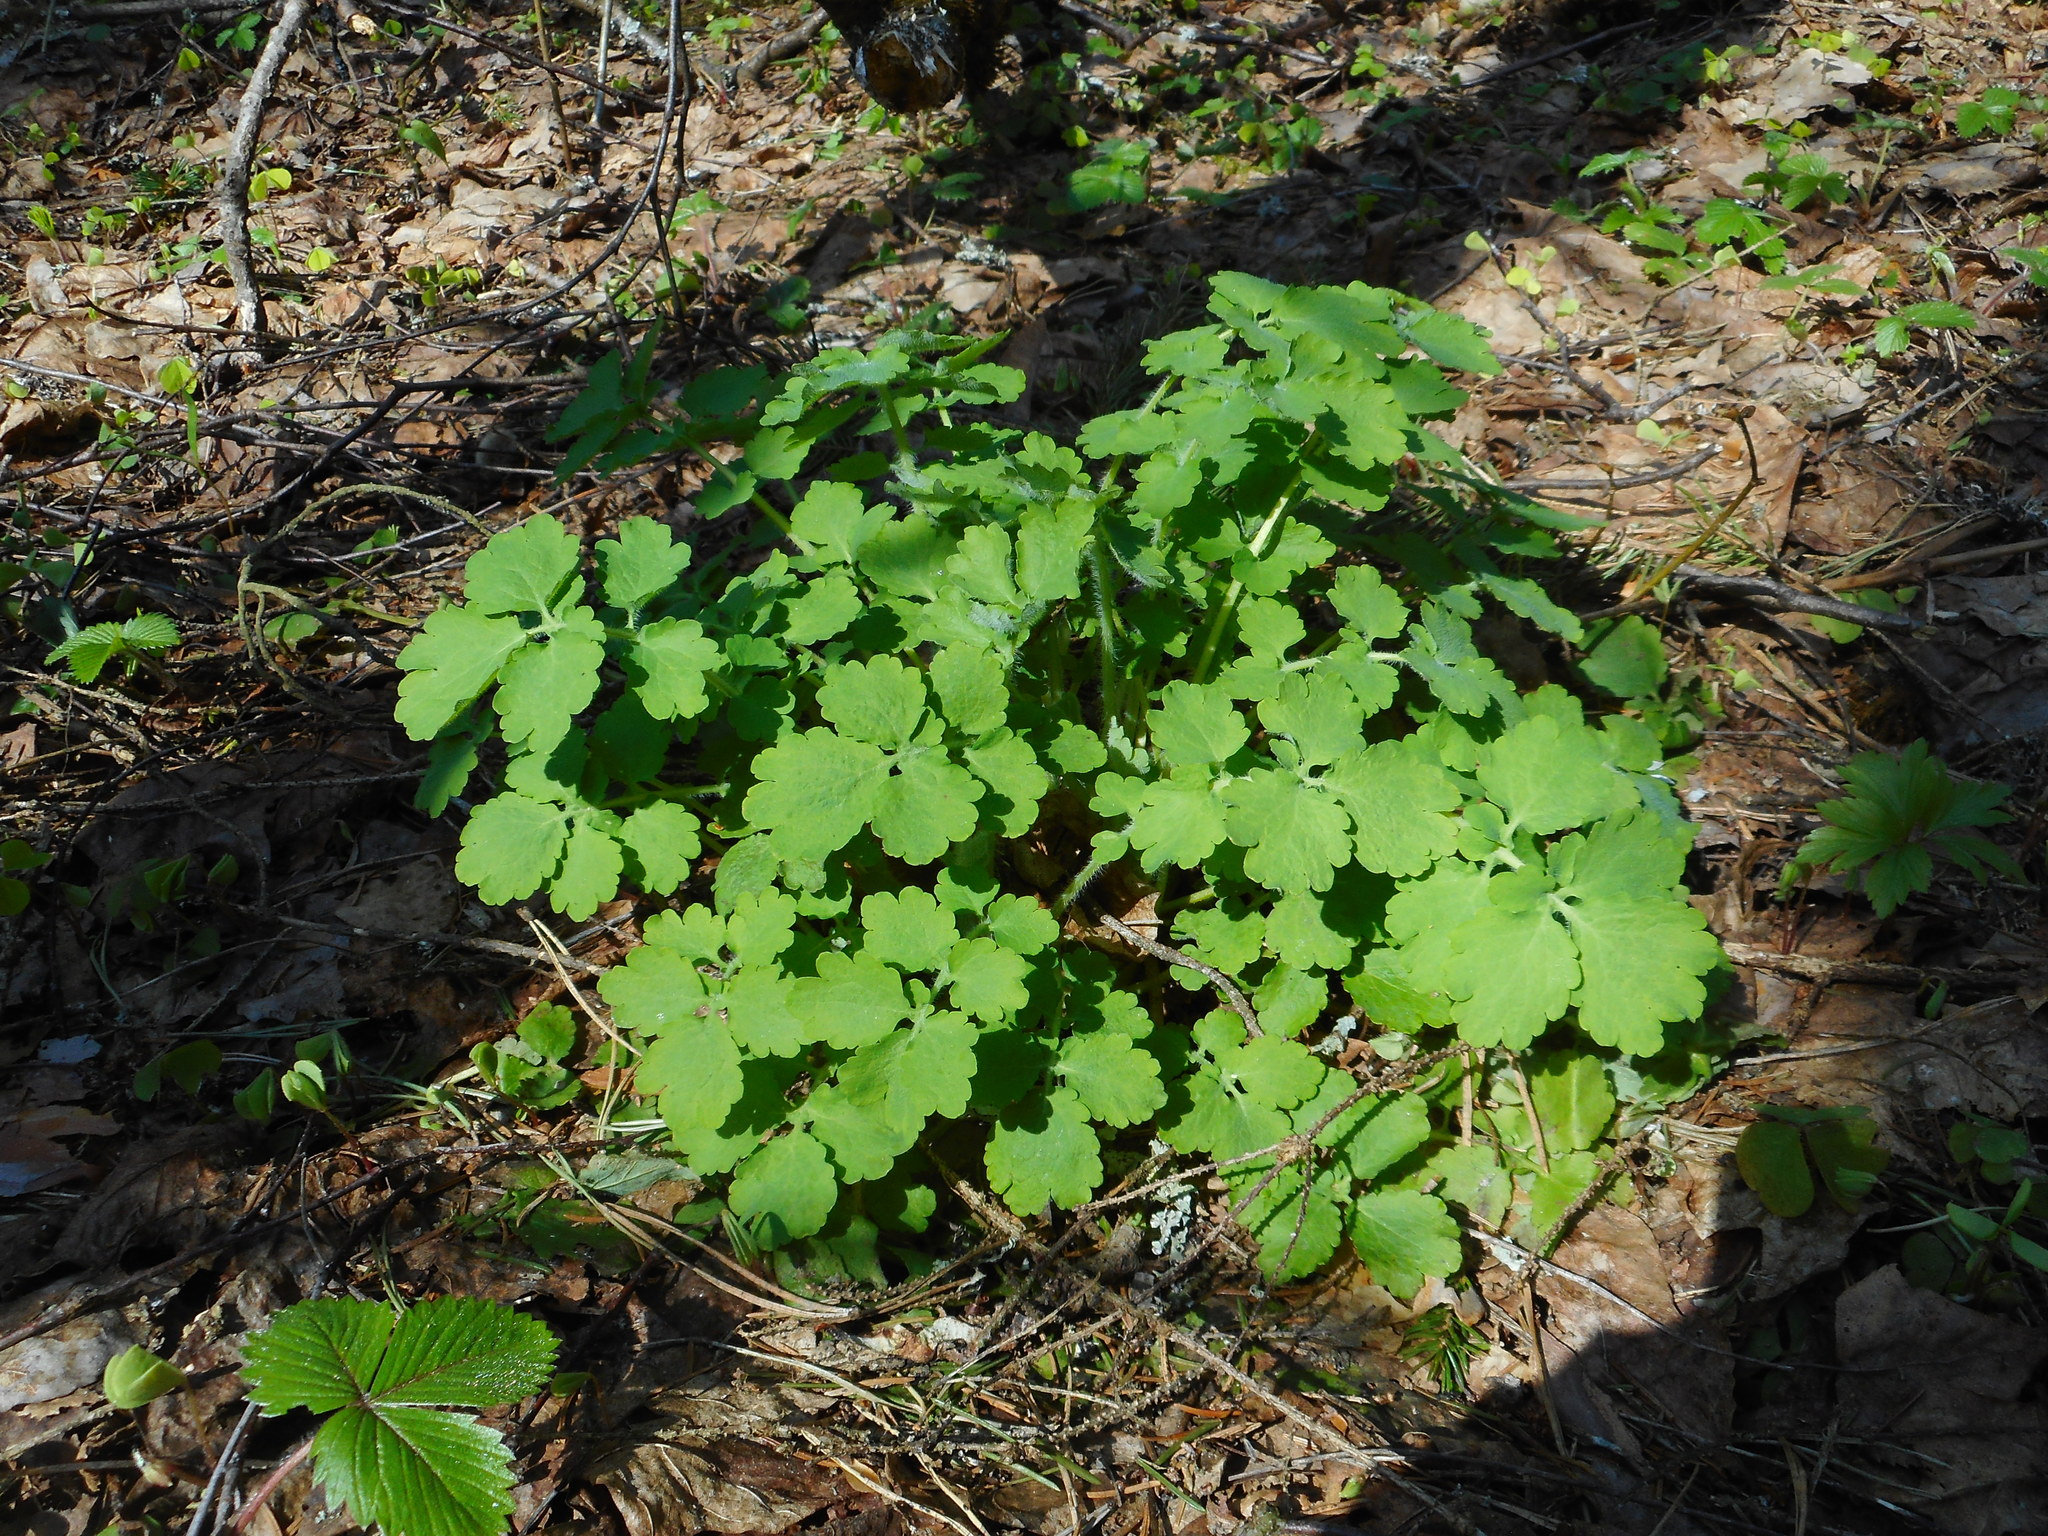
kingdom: Plantae
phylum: Tracheophyta
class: Magnoliopsida
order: Ranunculales
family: Papaveraceae
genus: Chelidonium
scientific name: Chelidonium majus
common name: Greater celandine
